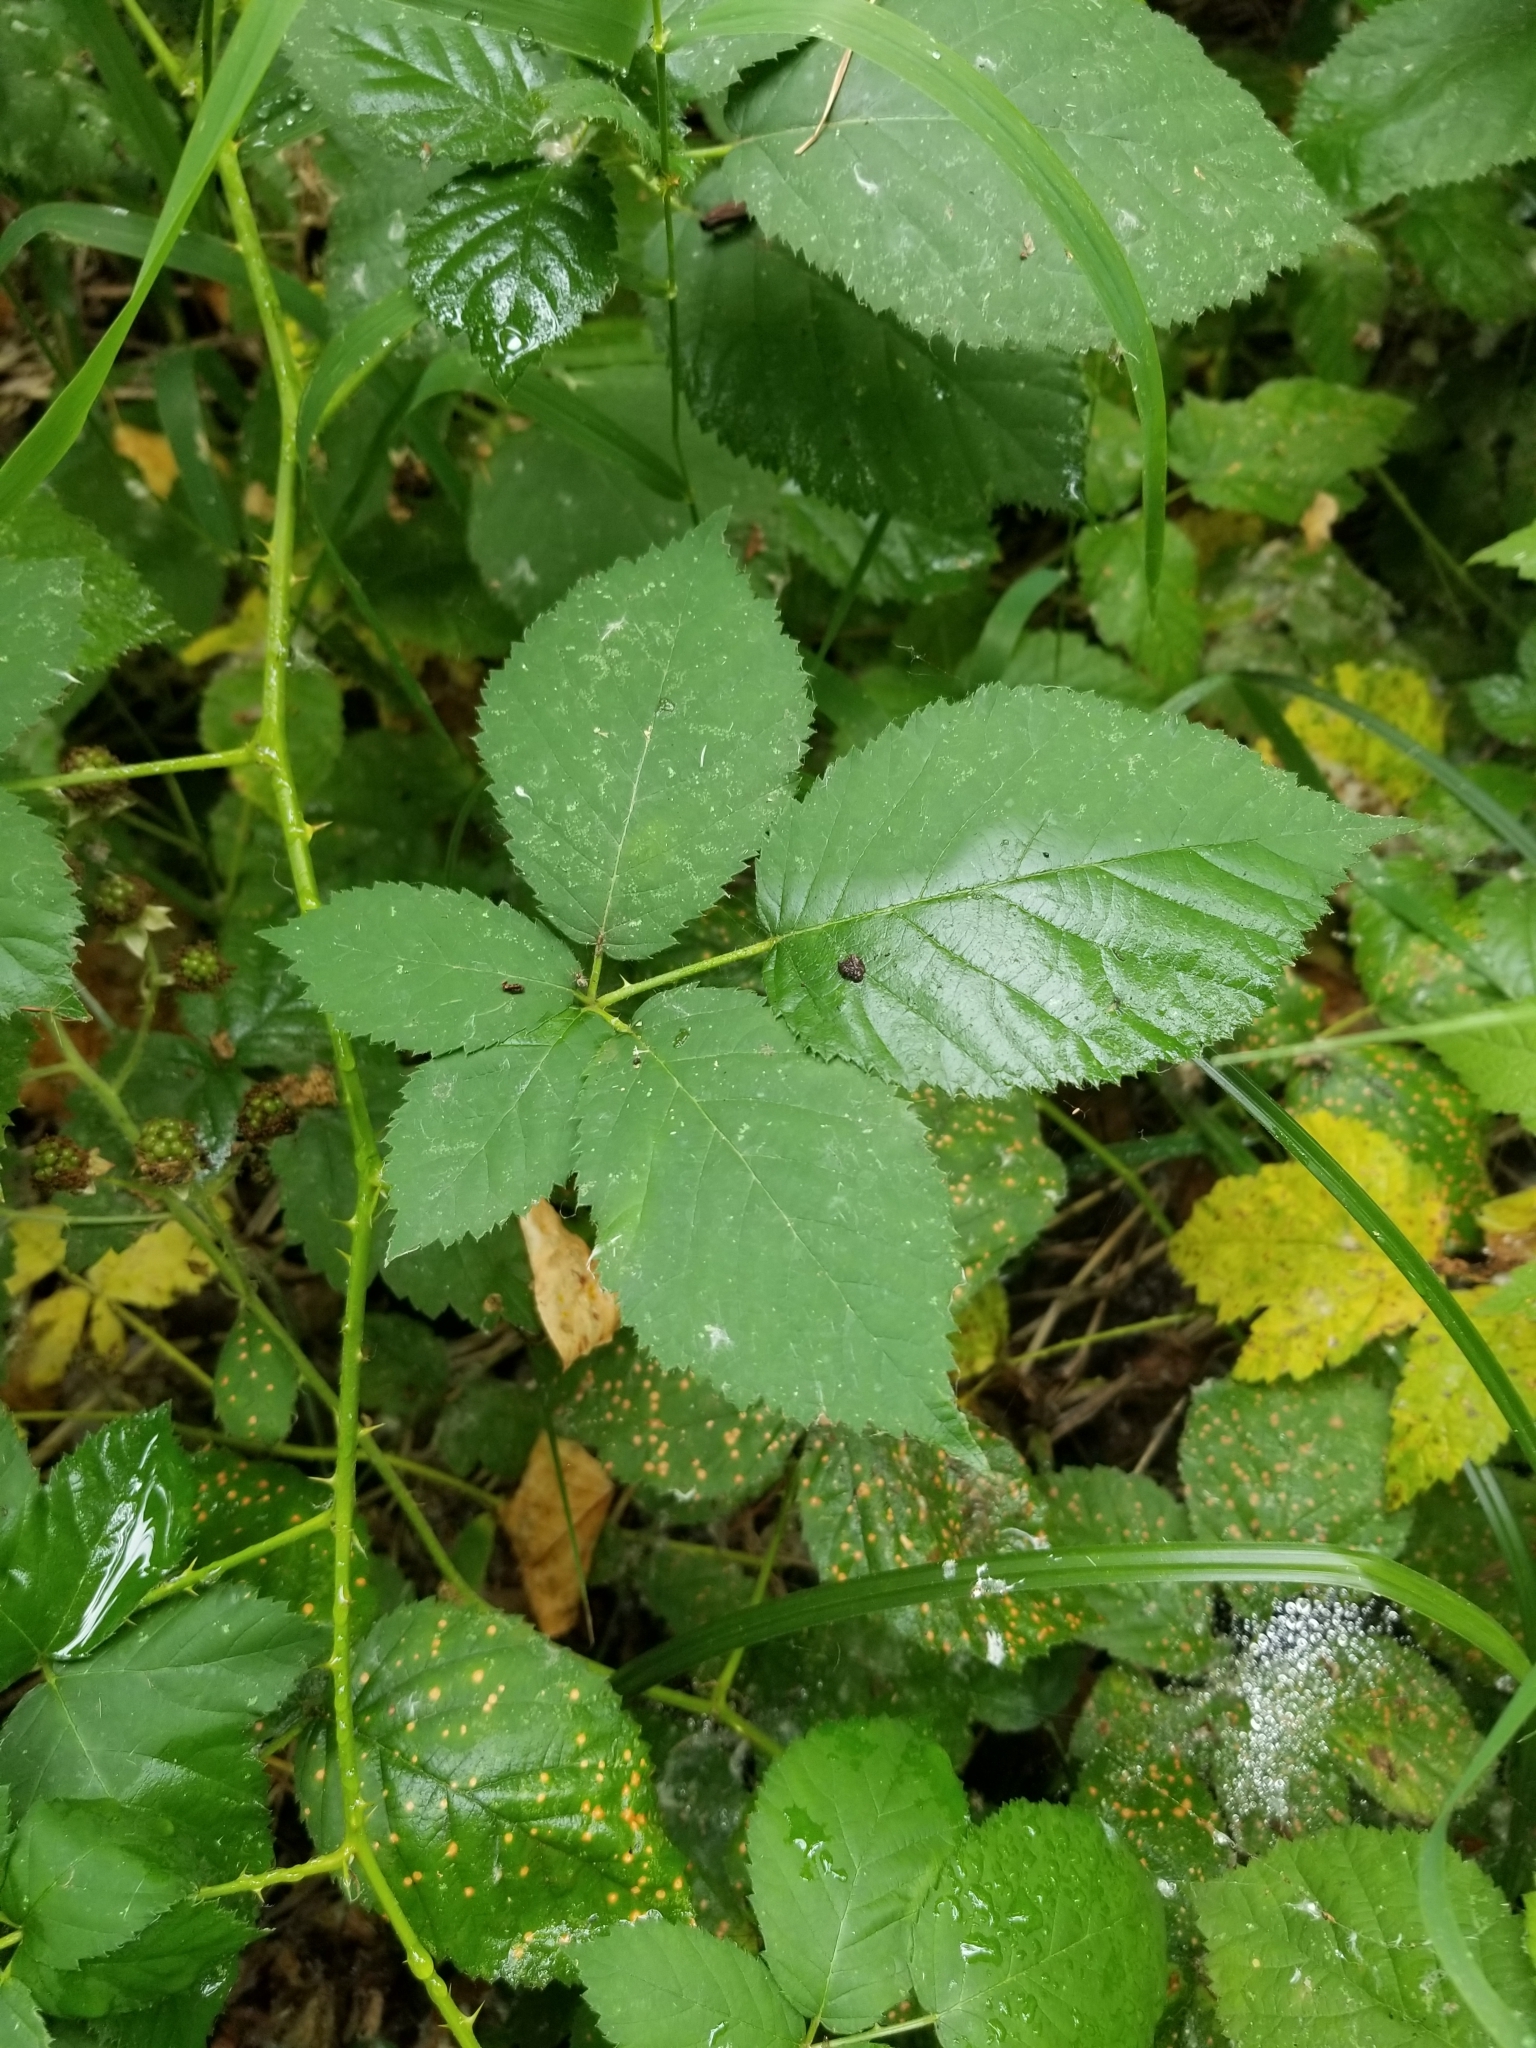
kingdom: Plantae
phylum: Tracheophyta
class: Magnoliopsida
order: Rosales
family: Rosaceae
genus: Rubus
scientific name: Rubus armeniacus
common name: Himalayan blackberry
